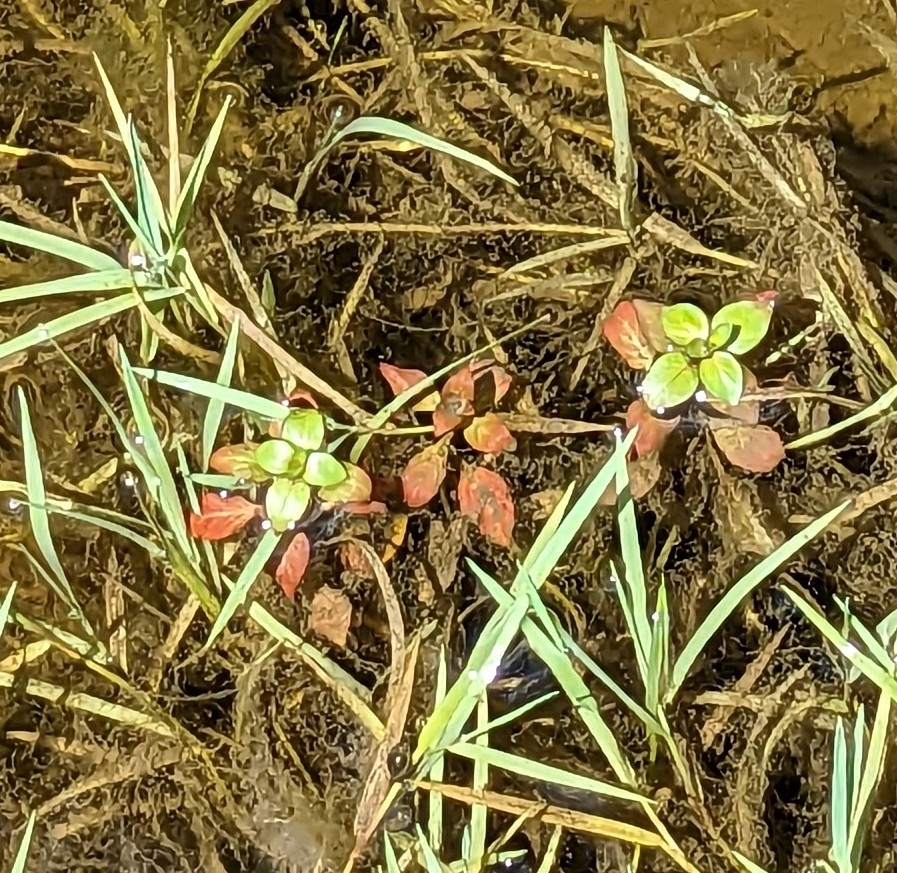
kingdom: Plantae
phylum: Tracheophyta
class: Magnoliopsida
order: Myrtales
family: Onagraceae
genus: Ludwigia
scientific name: Ludwigia palustris
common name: Hampshire-purslane
